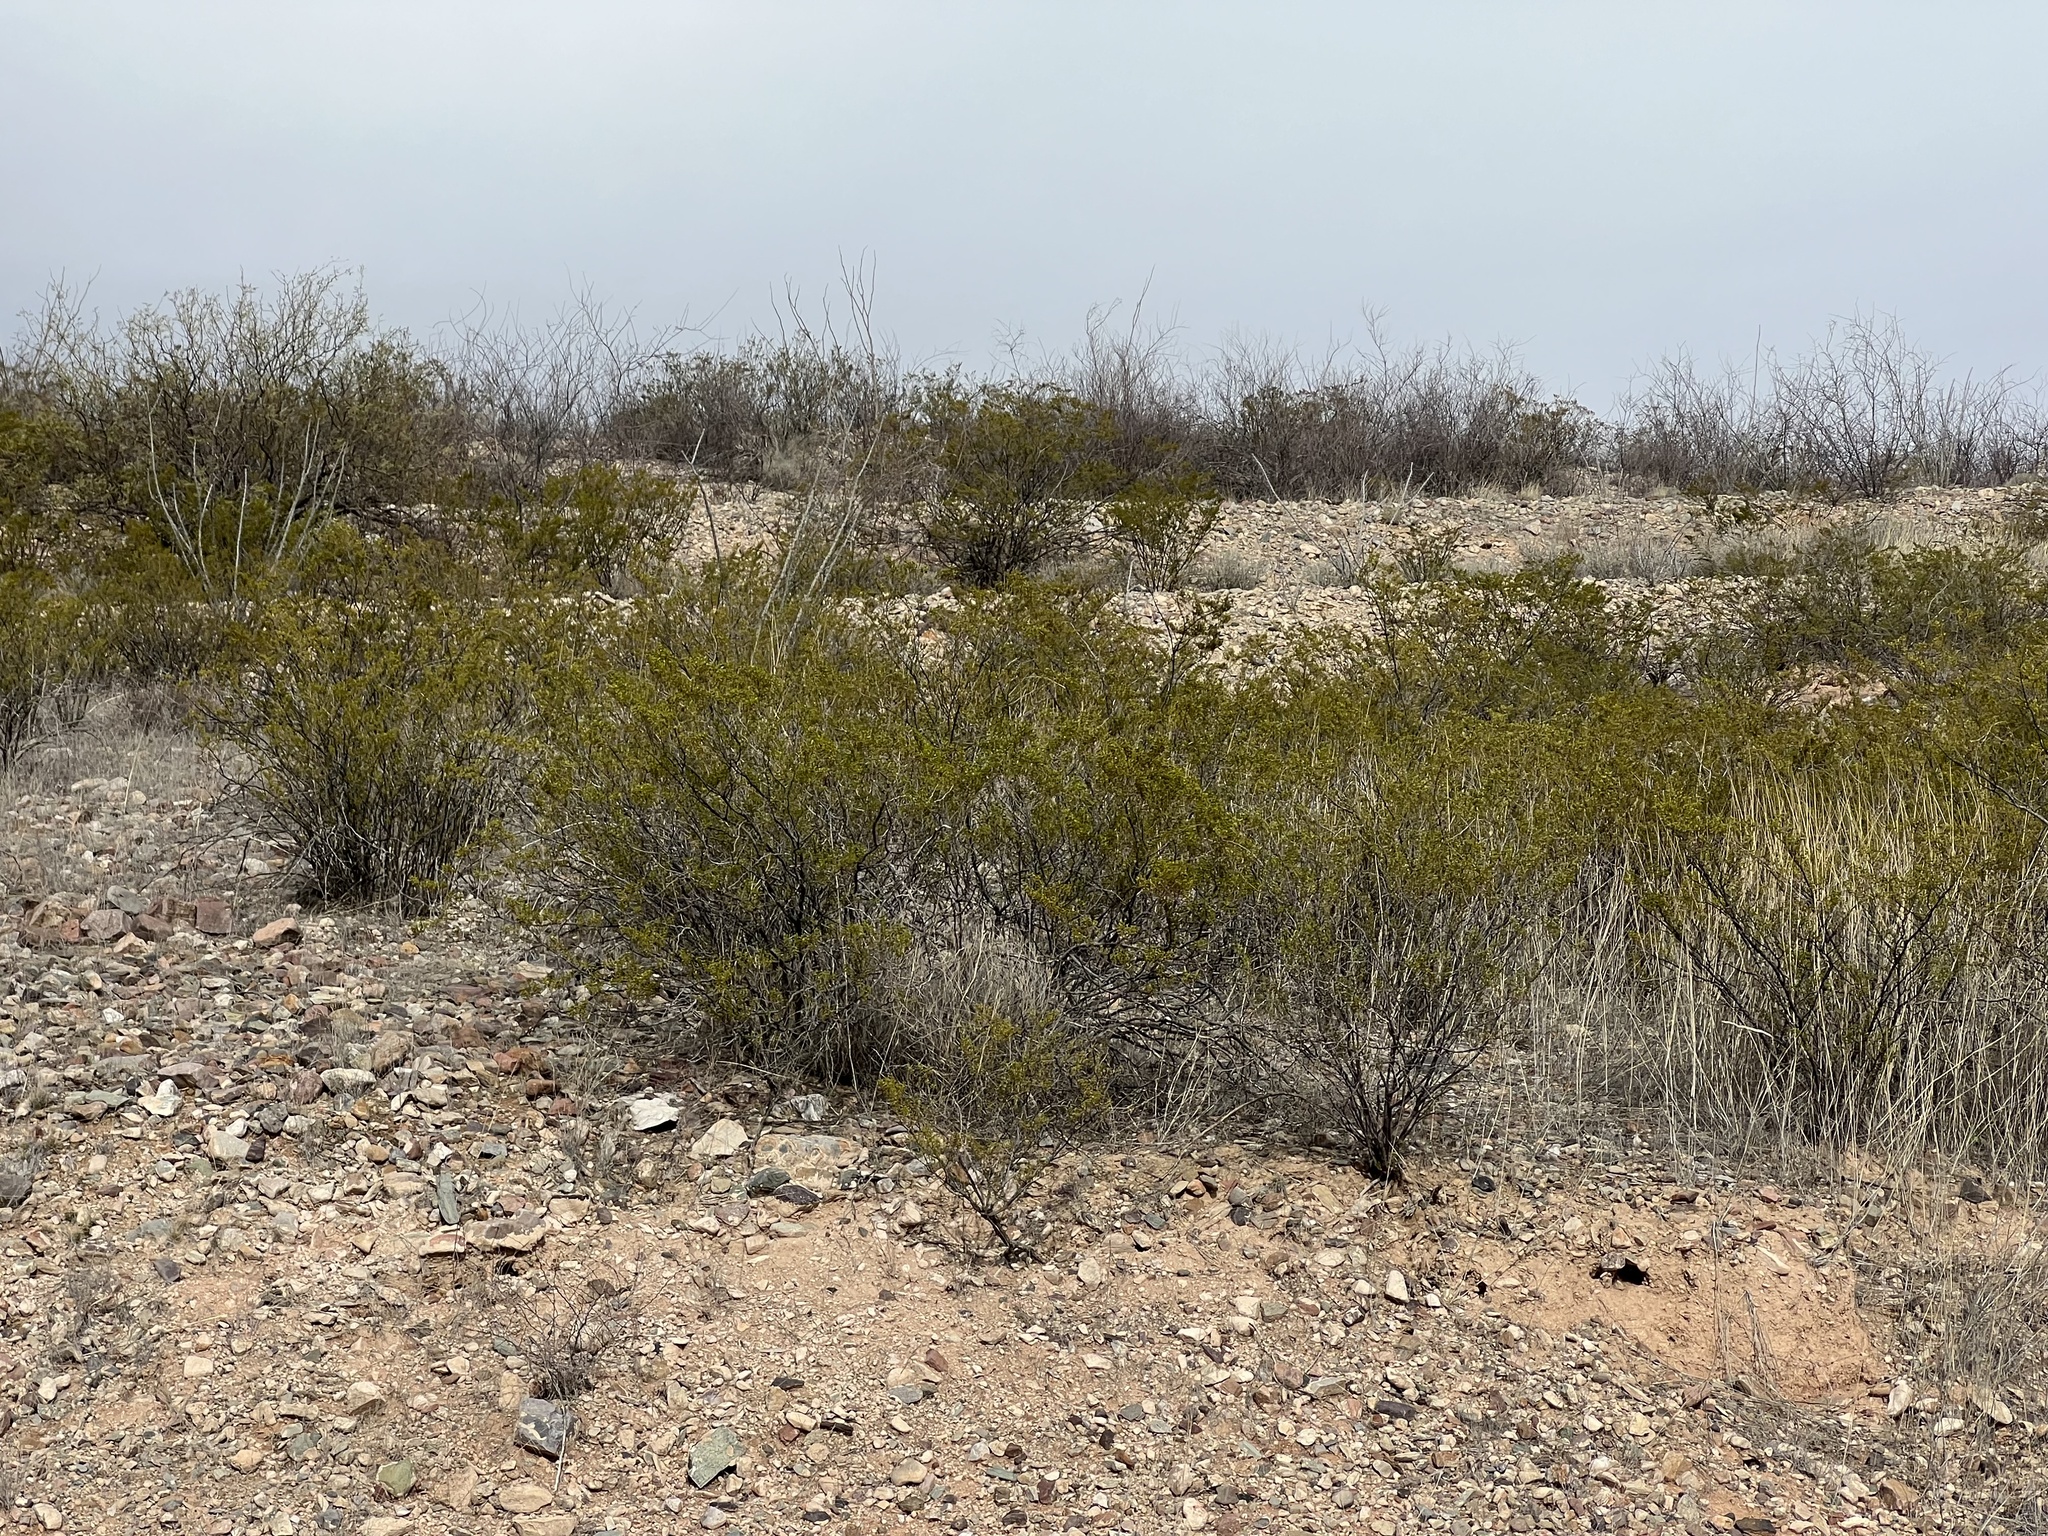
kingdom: Plantae
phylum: Tracheophyta
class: Magnoliopsida
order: Zygophyllales
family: Zygophyllaceae
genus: Larrea
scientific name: Larrea tridentata
